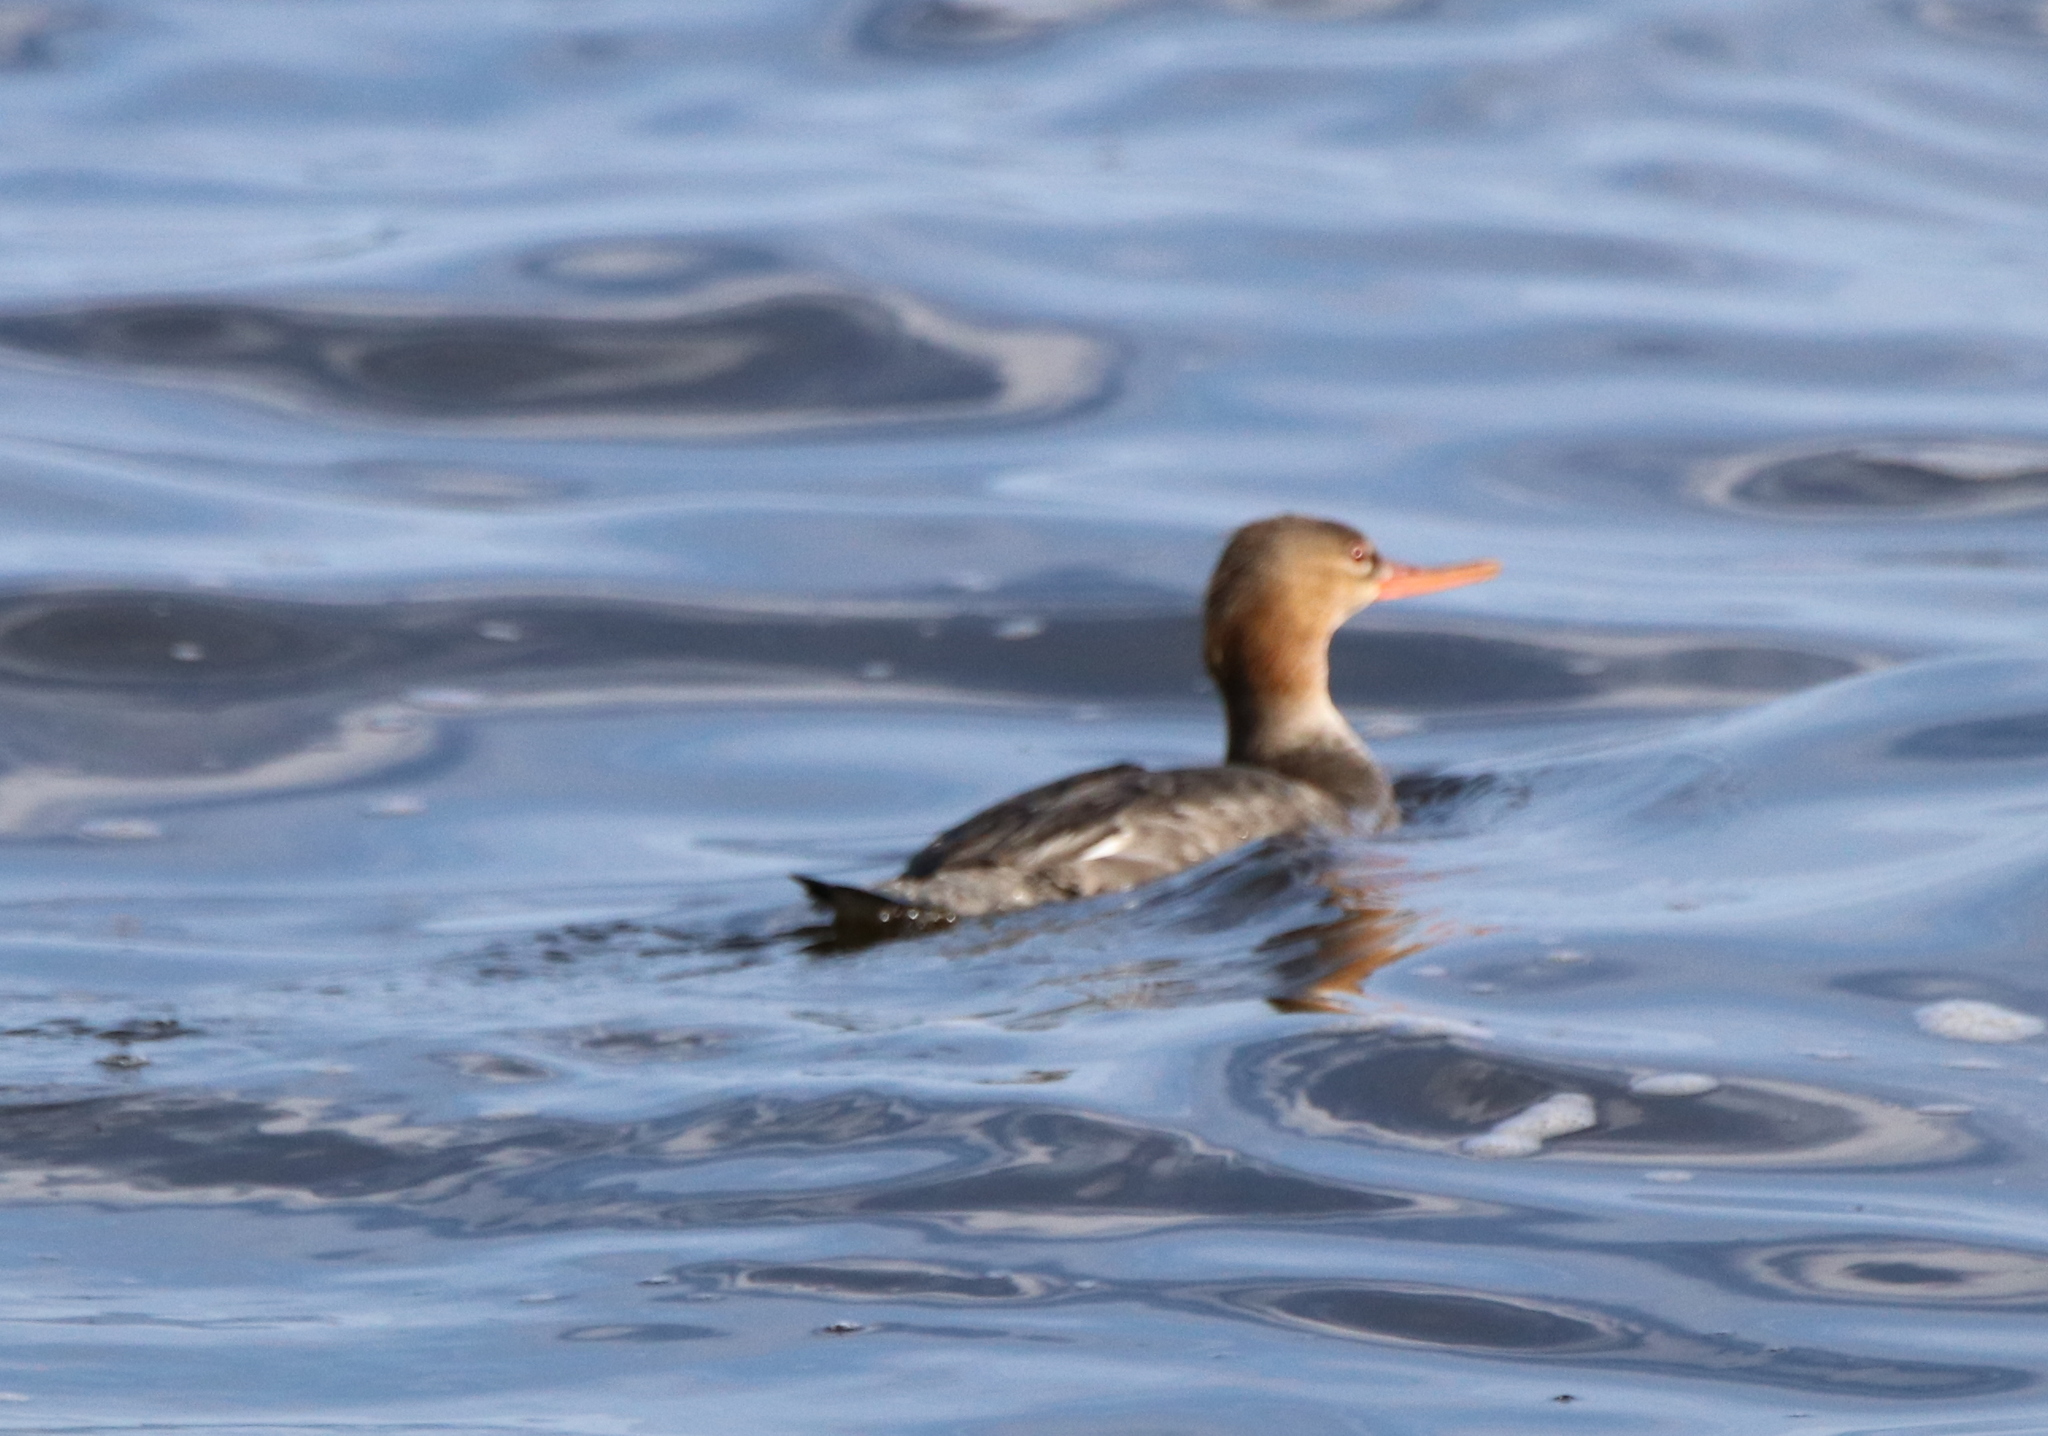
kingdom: Animalia
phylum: Chordata
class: Aves
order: Anseriformes
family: Anatidae
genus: Mergus
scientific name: Mergus serrator
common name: Red-breasted merganser
